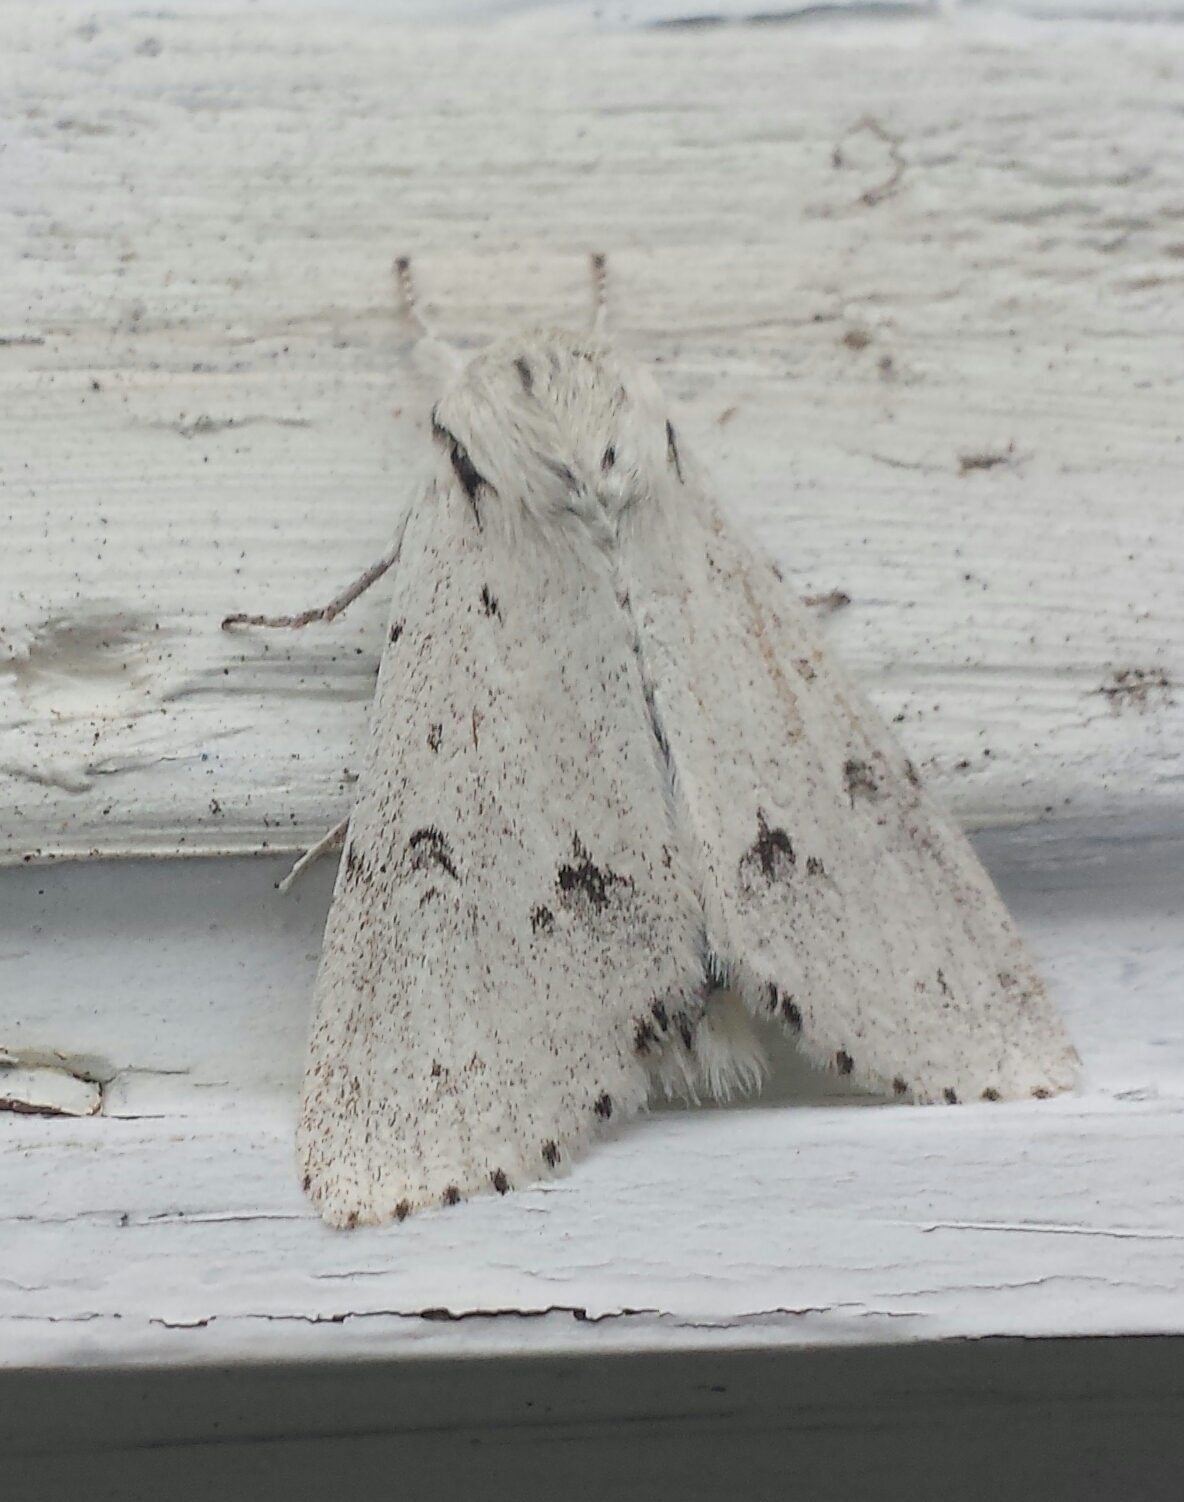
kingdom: Animalia
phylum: Arthropoda
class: Insecta
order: Lepidoptera
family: Noctuidae
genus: Acronicta
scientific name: Acronicta vulpina
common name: Miller dagger
